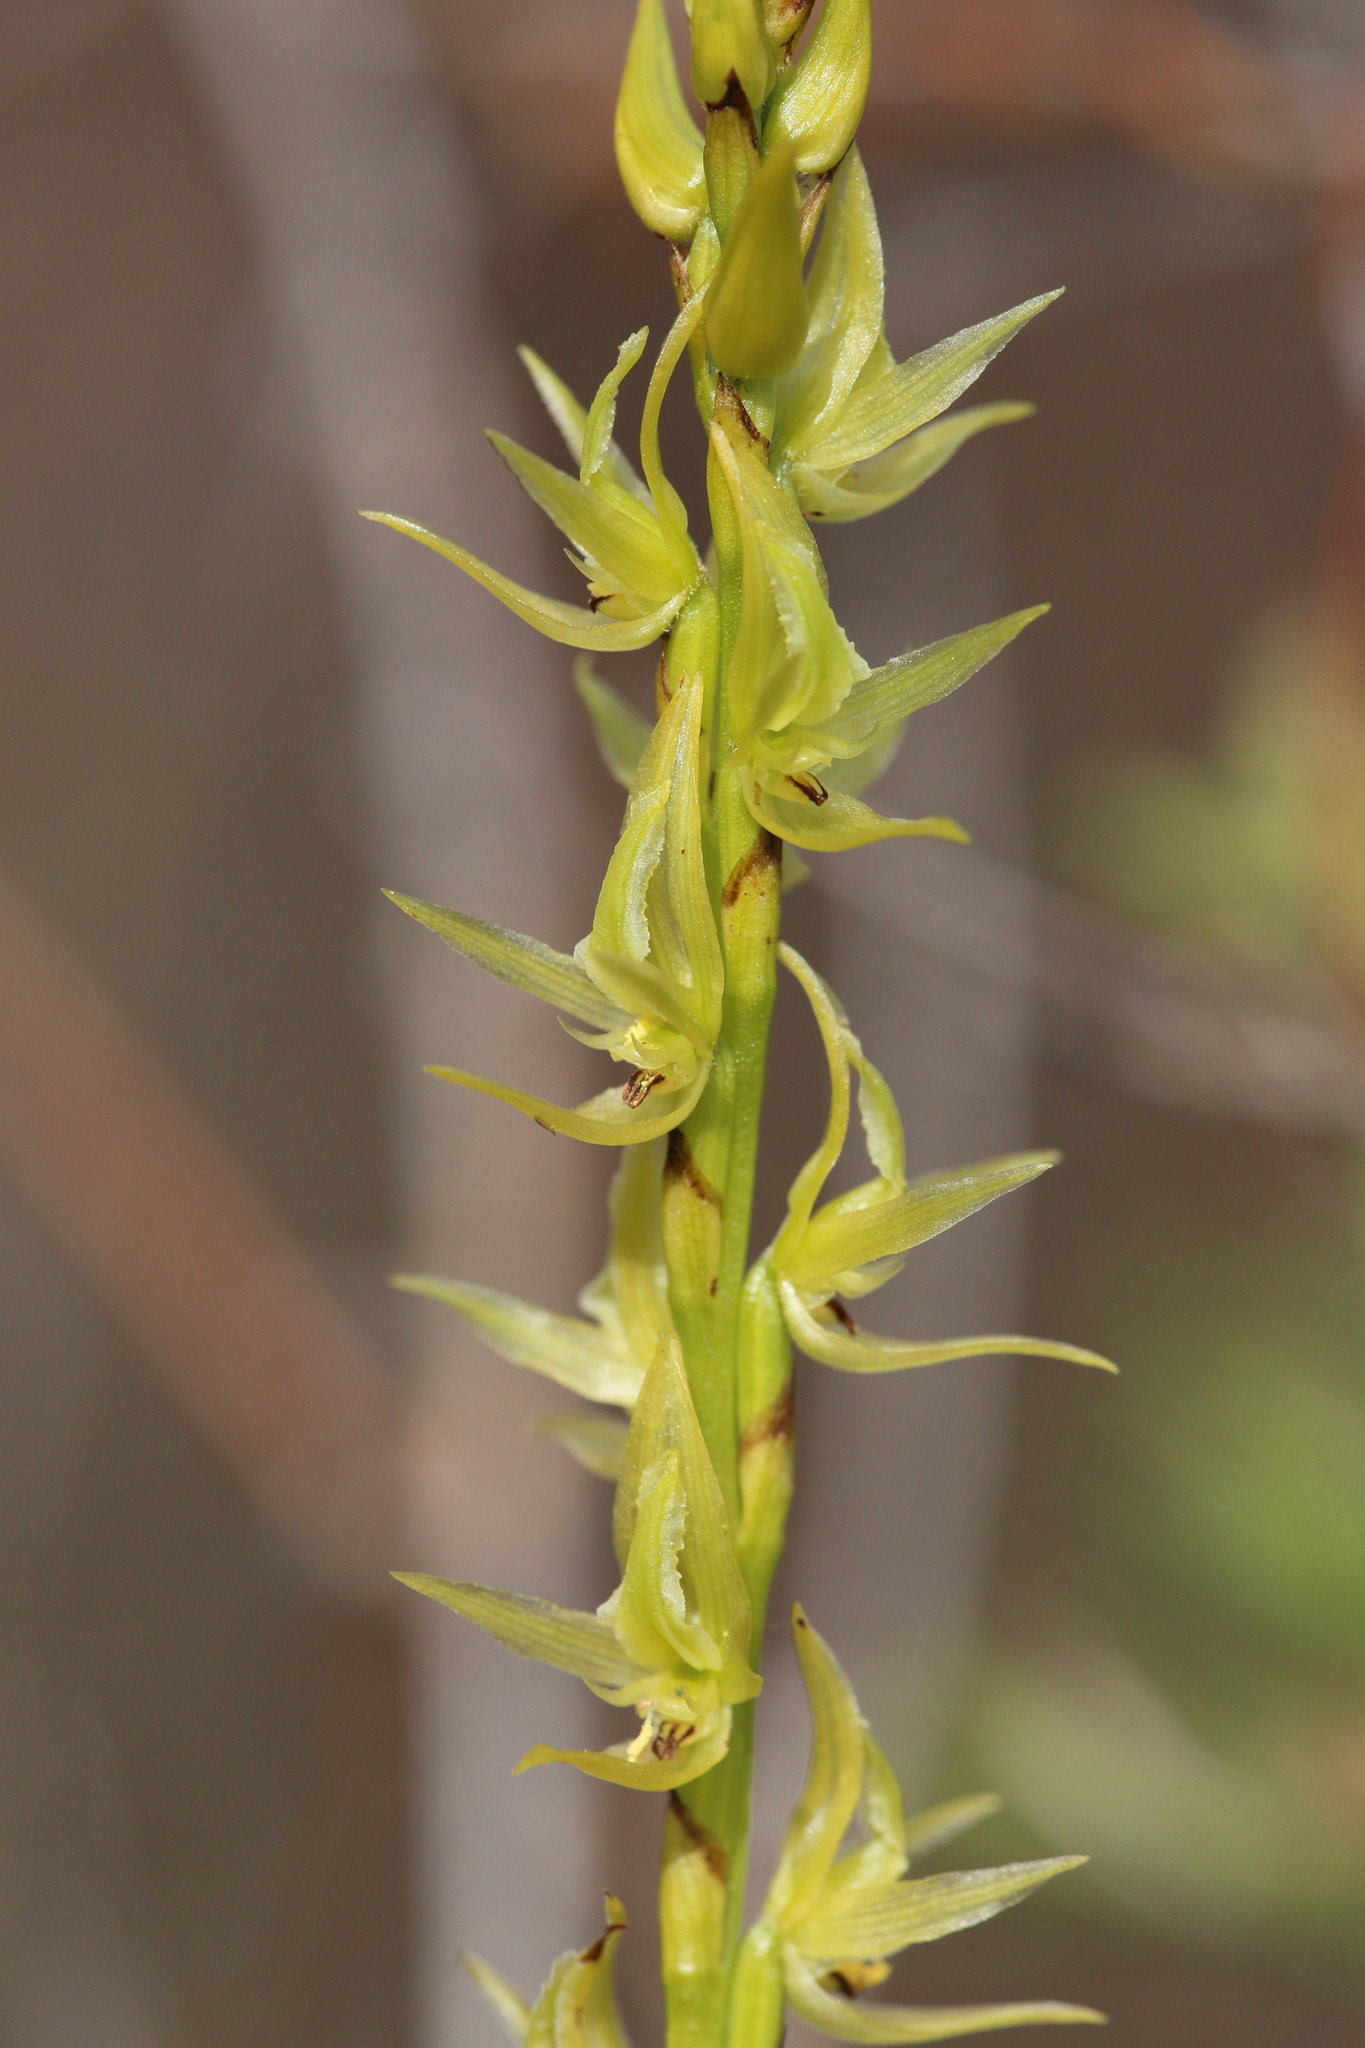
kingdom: Plantae
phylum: Tracheophyta
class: Liliopsida
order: Asparagales
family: Orchidaceae
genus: Prasophyllum
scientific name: Prasophyllum drummondii
